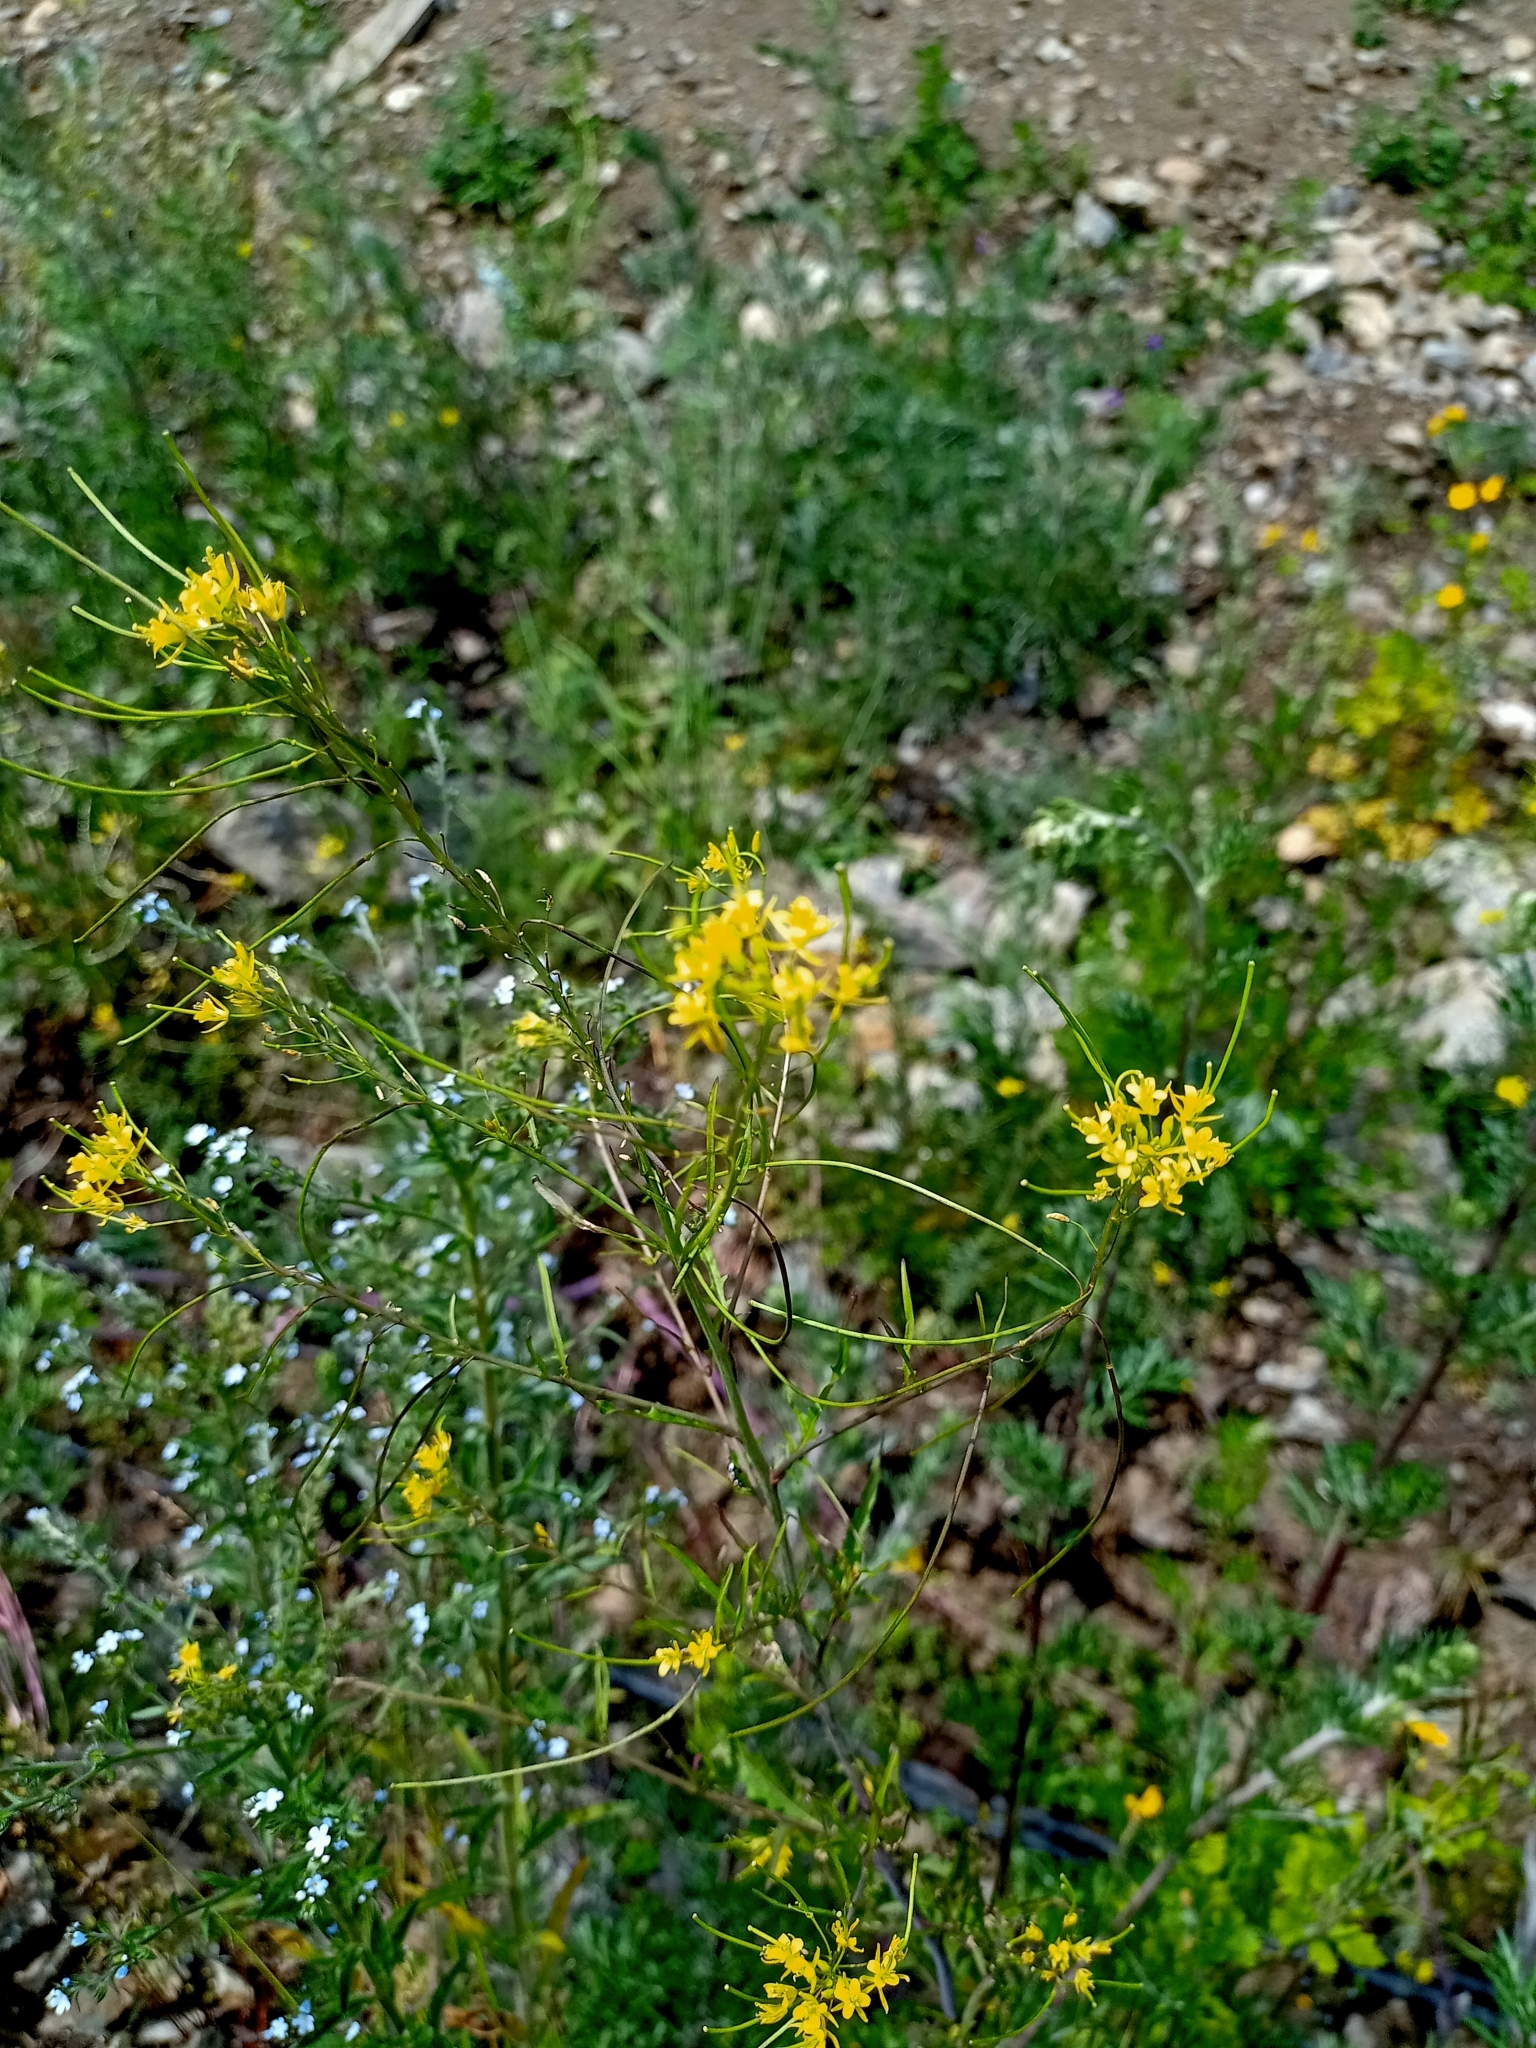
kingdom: Plantae
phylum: Tracheophyta
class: Magnoliopsida
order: Brassicales
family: Brassicaceae
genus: Sisymbrium
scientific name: Sisymbrium heteromallum
